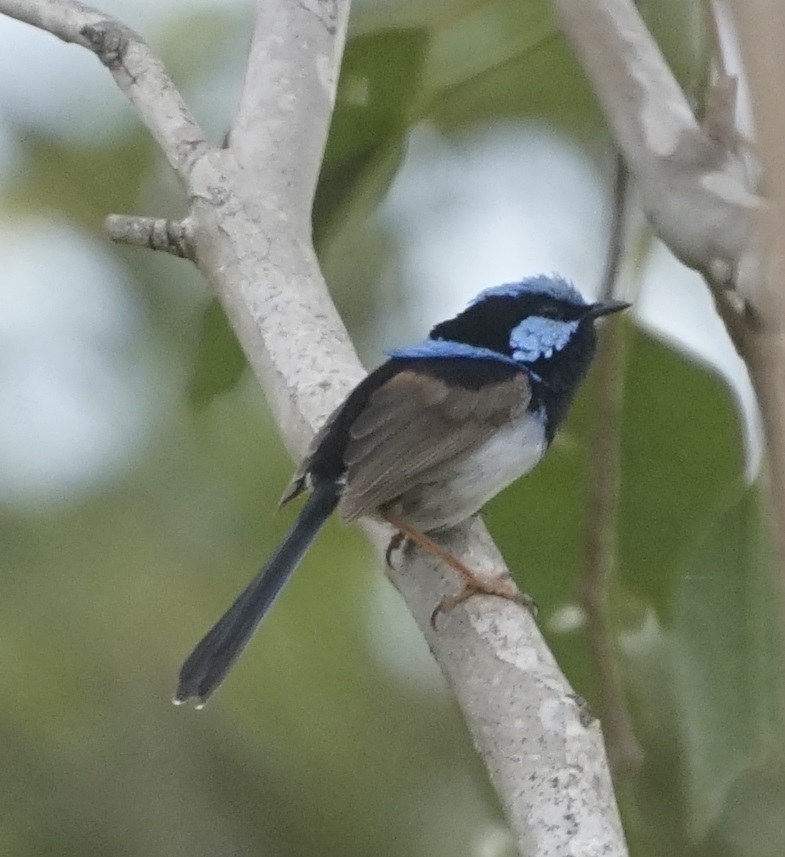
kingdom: Animalia
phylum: Chordata
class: Aves
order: Passeriformes
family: Maluridae
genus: Malurus
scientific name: Malurus cyaneus
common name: Superb fairywren
